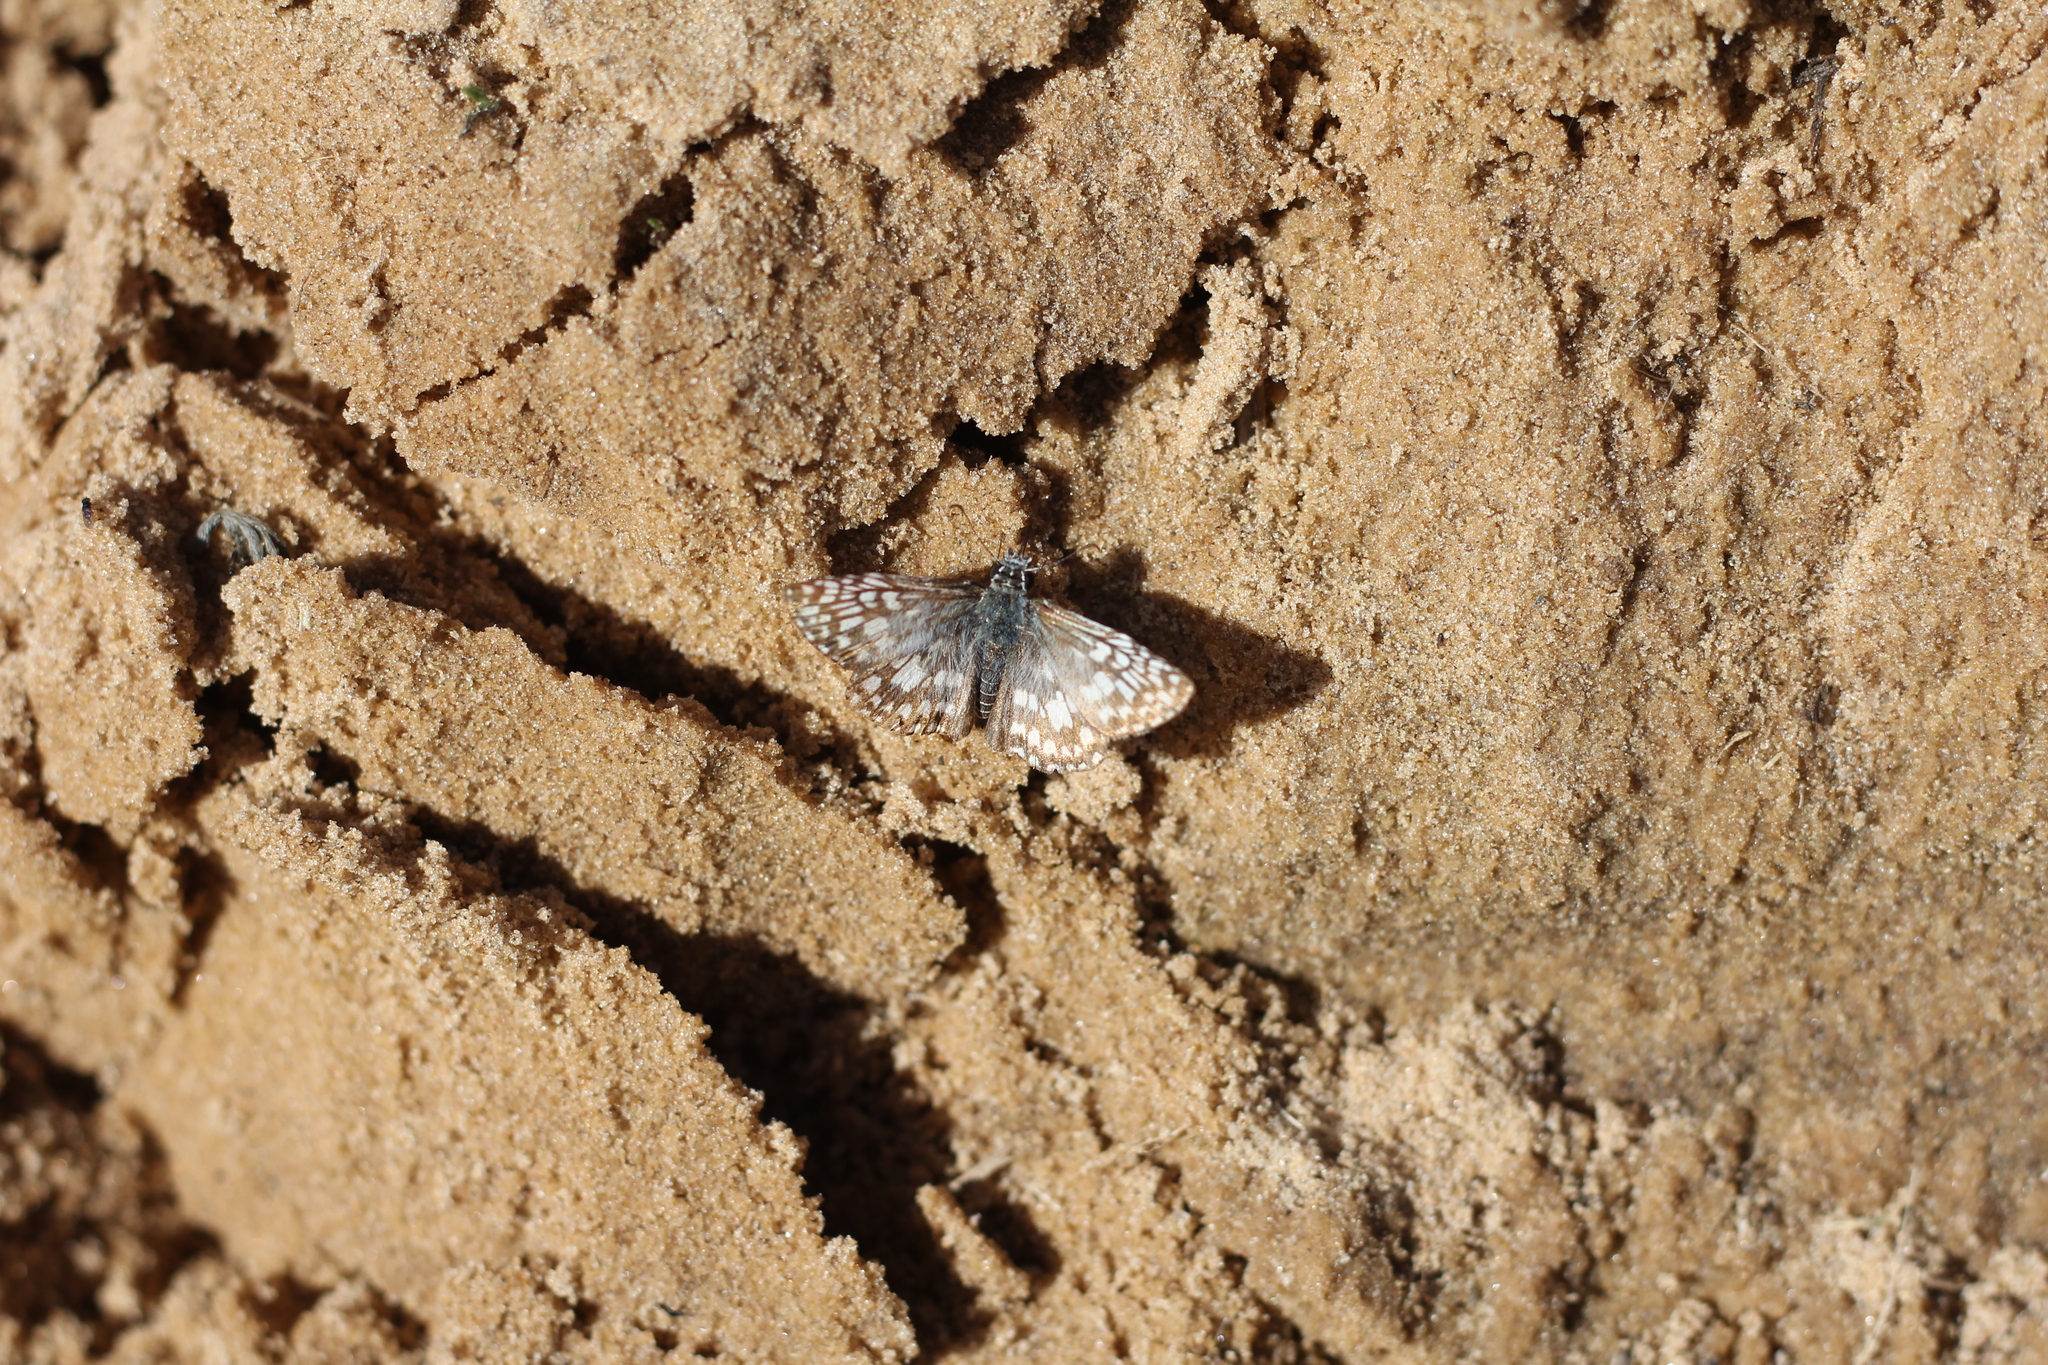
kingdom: Animalia
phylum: Arthropoda
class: Insecta
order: Lepidoptera
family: Hesperiidae
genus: Pyrgus
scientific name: Pyrgus oileus
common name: Tropical checkered-skipper
